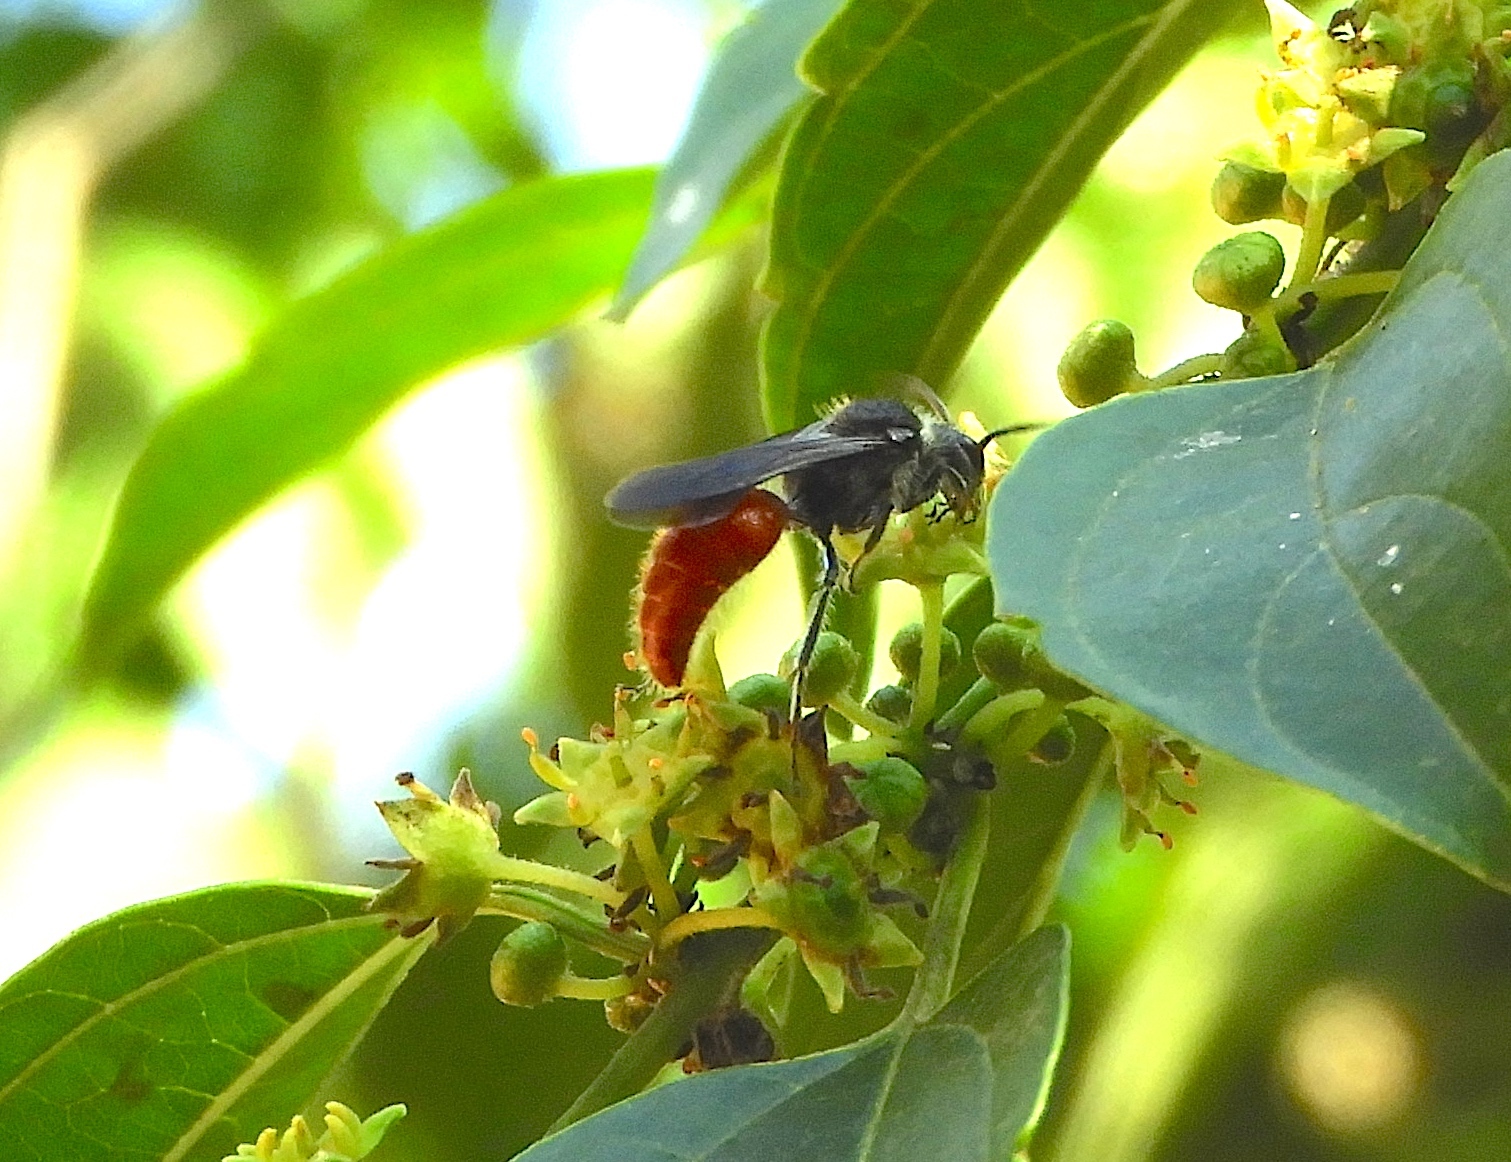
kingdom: Animalia
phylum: Arthropoda
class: Insecta
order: Hymenoptera
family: Mutillidae
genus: Timulla
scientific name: Timulla
